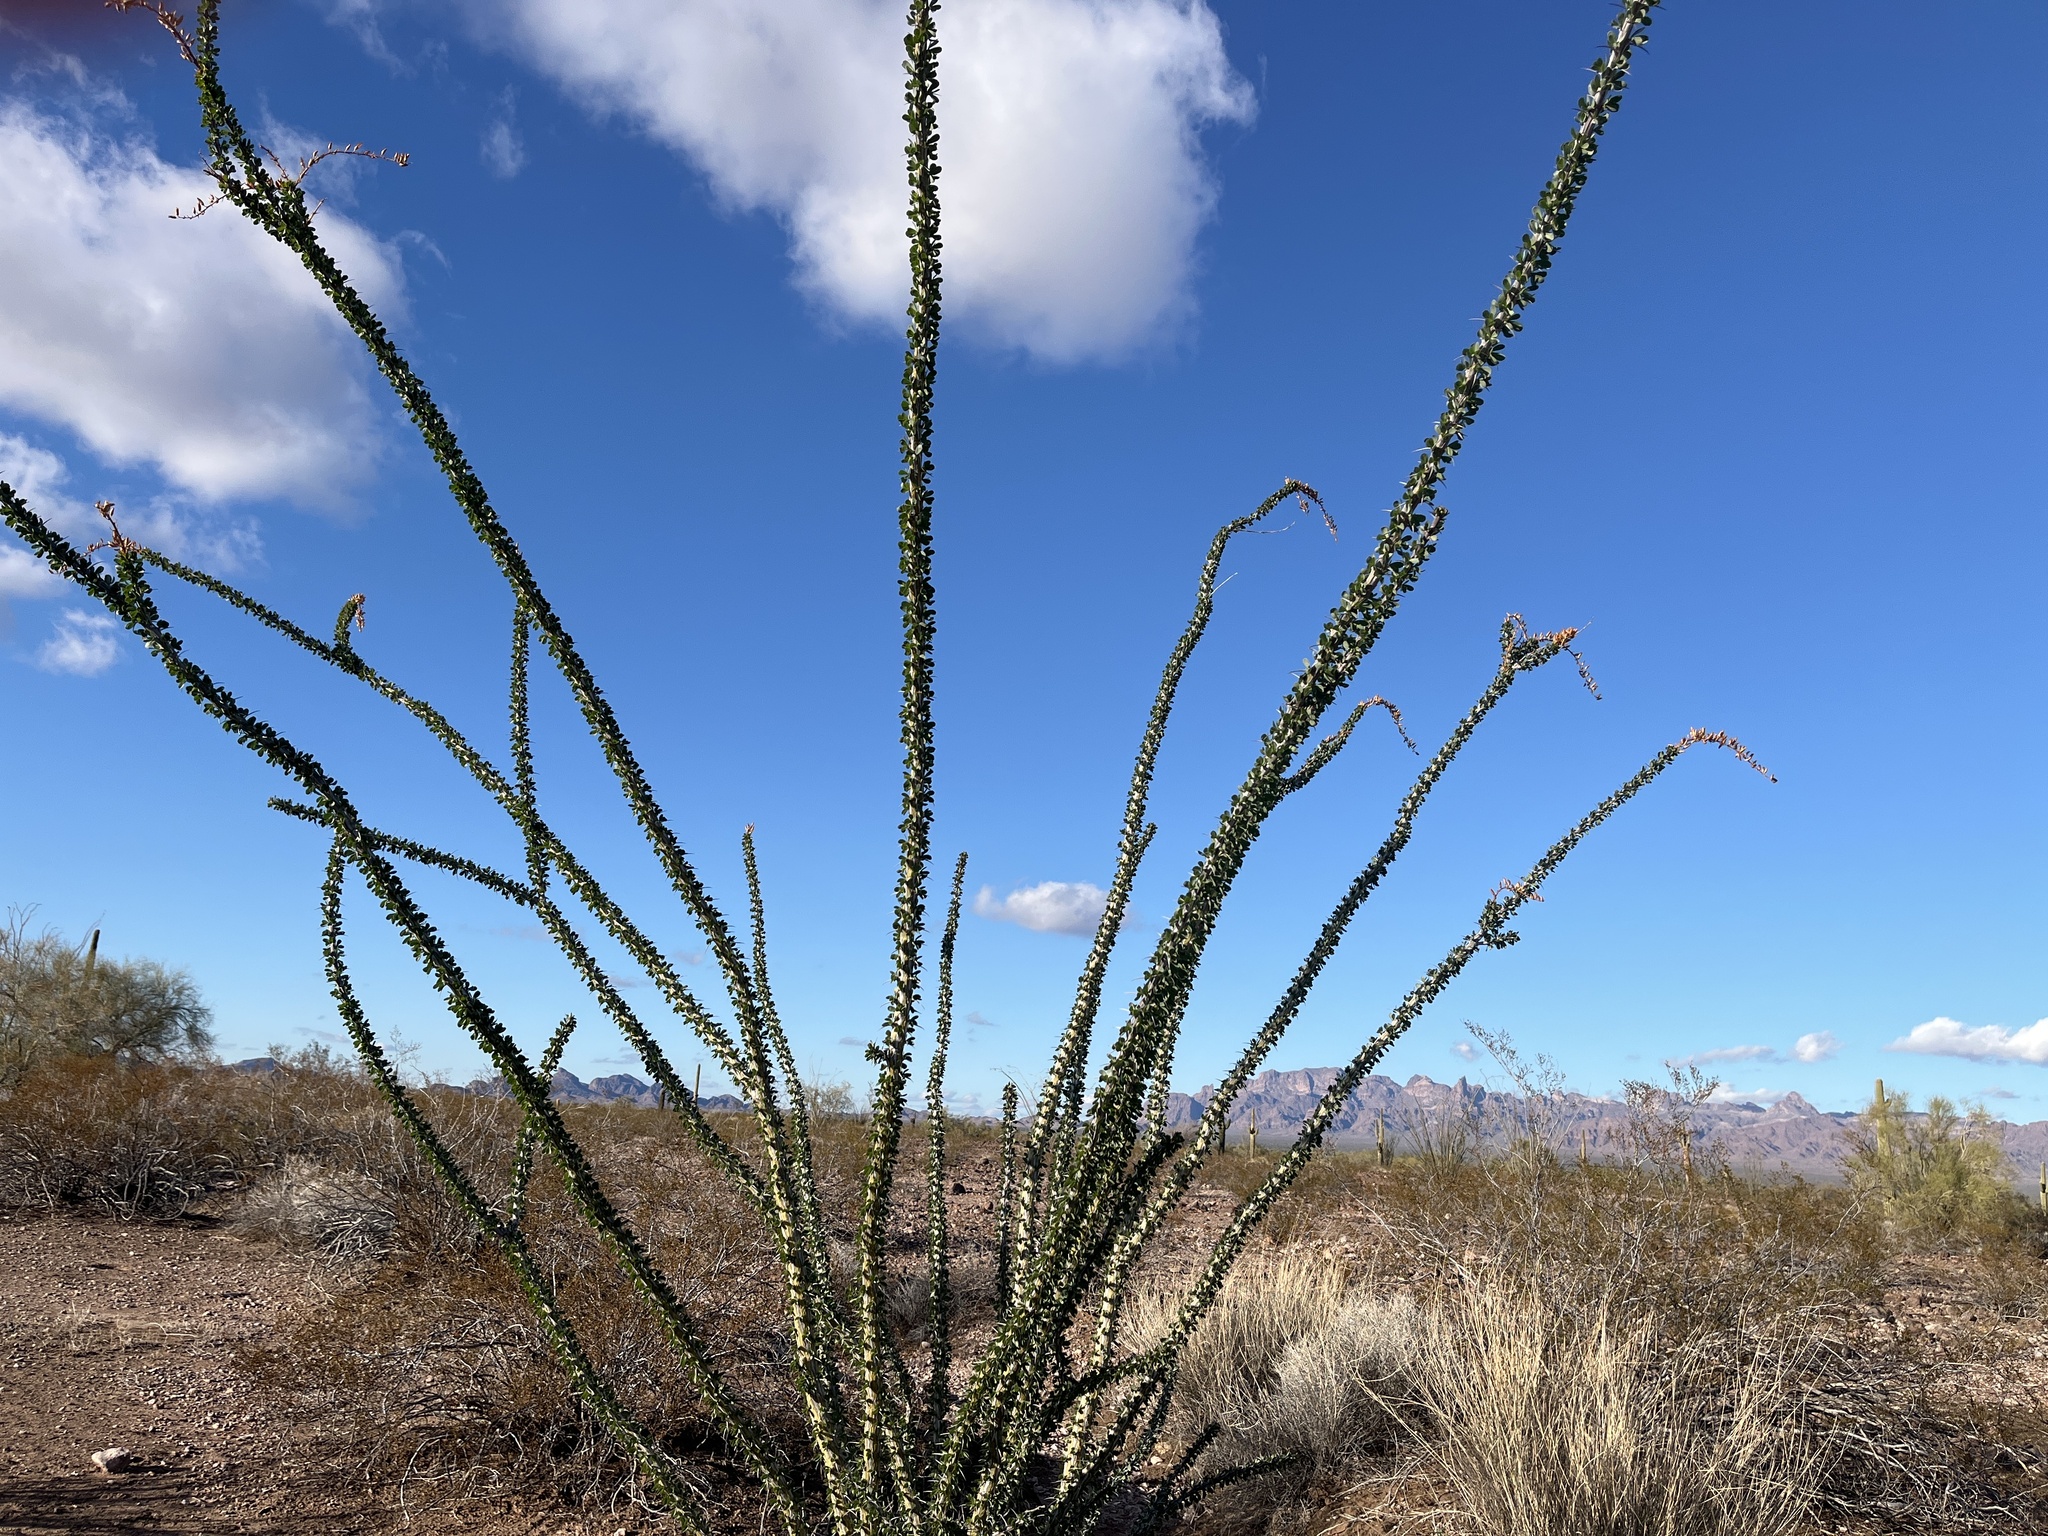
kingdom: Plantae
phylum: Tracheophyta
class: Magnoliopsida
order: Ericales
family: Fouquieriaceae
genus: Fouquieria
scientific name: Fouquieria splendens
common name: Vine-cactus
